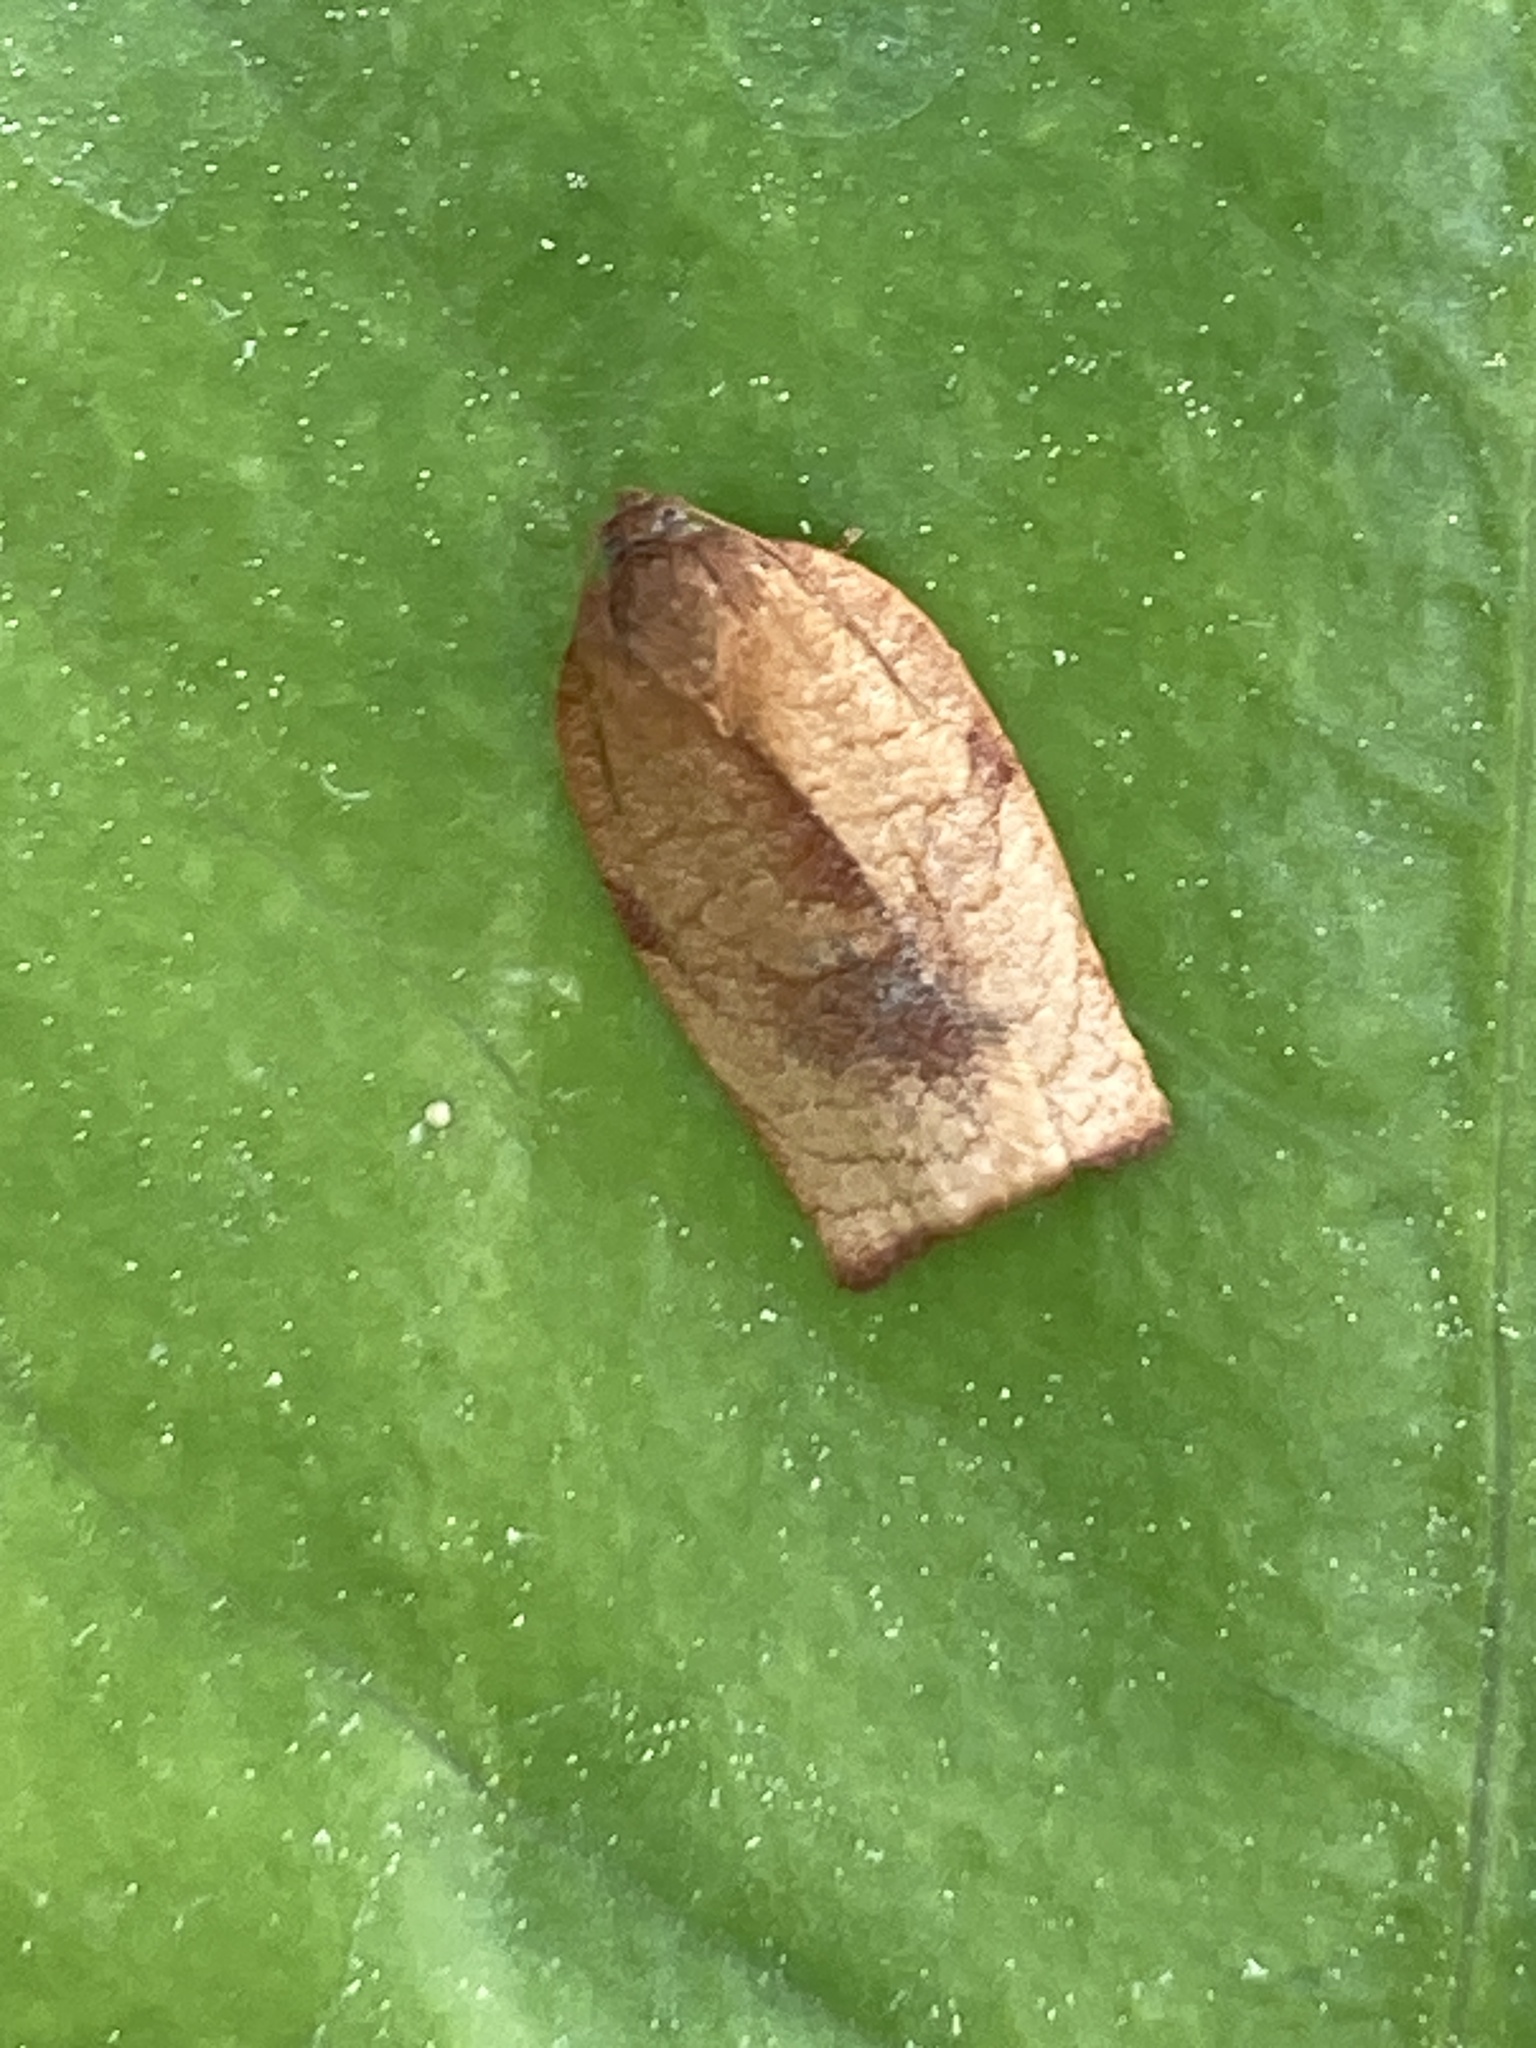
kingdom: Animalia
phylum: Arthropoda
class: Insecta
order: Lepidoptera
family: Tortricidae
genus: Cacoecimorpha
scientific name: Cacoecimorpha pronubana
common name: Carnation tortrix
